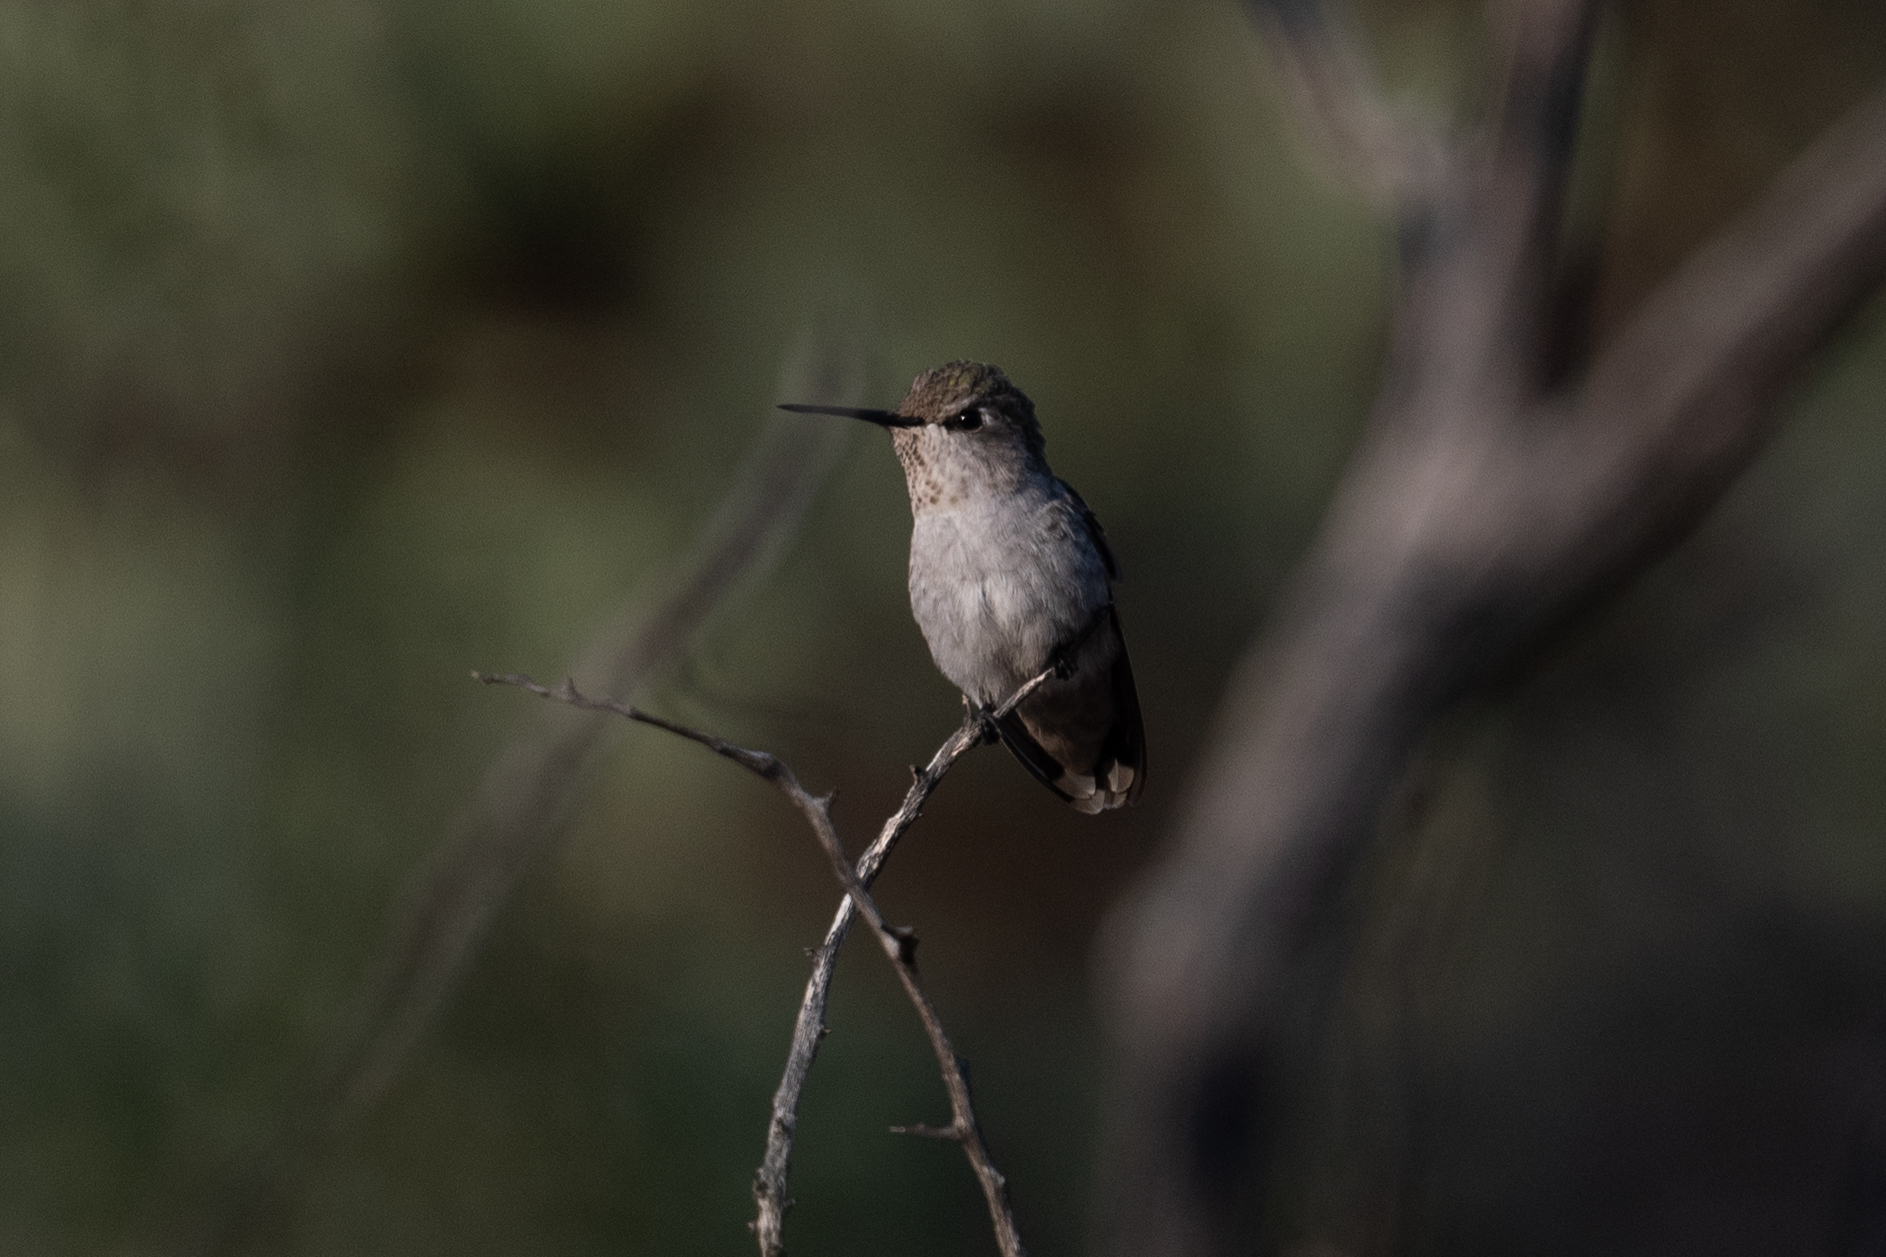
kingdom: Animalia
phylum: Chordata
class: Aves
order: Apodiformes
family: Trochilidae
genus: Calypte
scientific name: Calypte anna
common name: Anna's hummingbird
